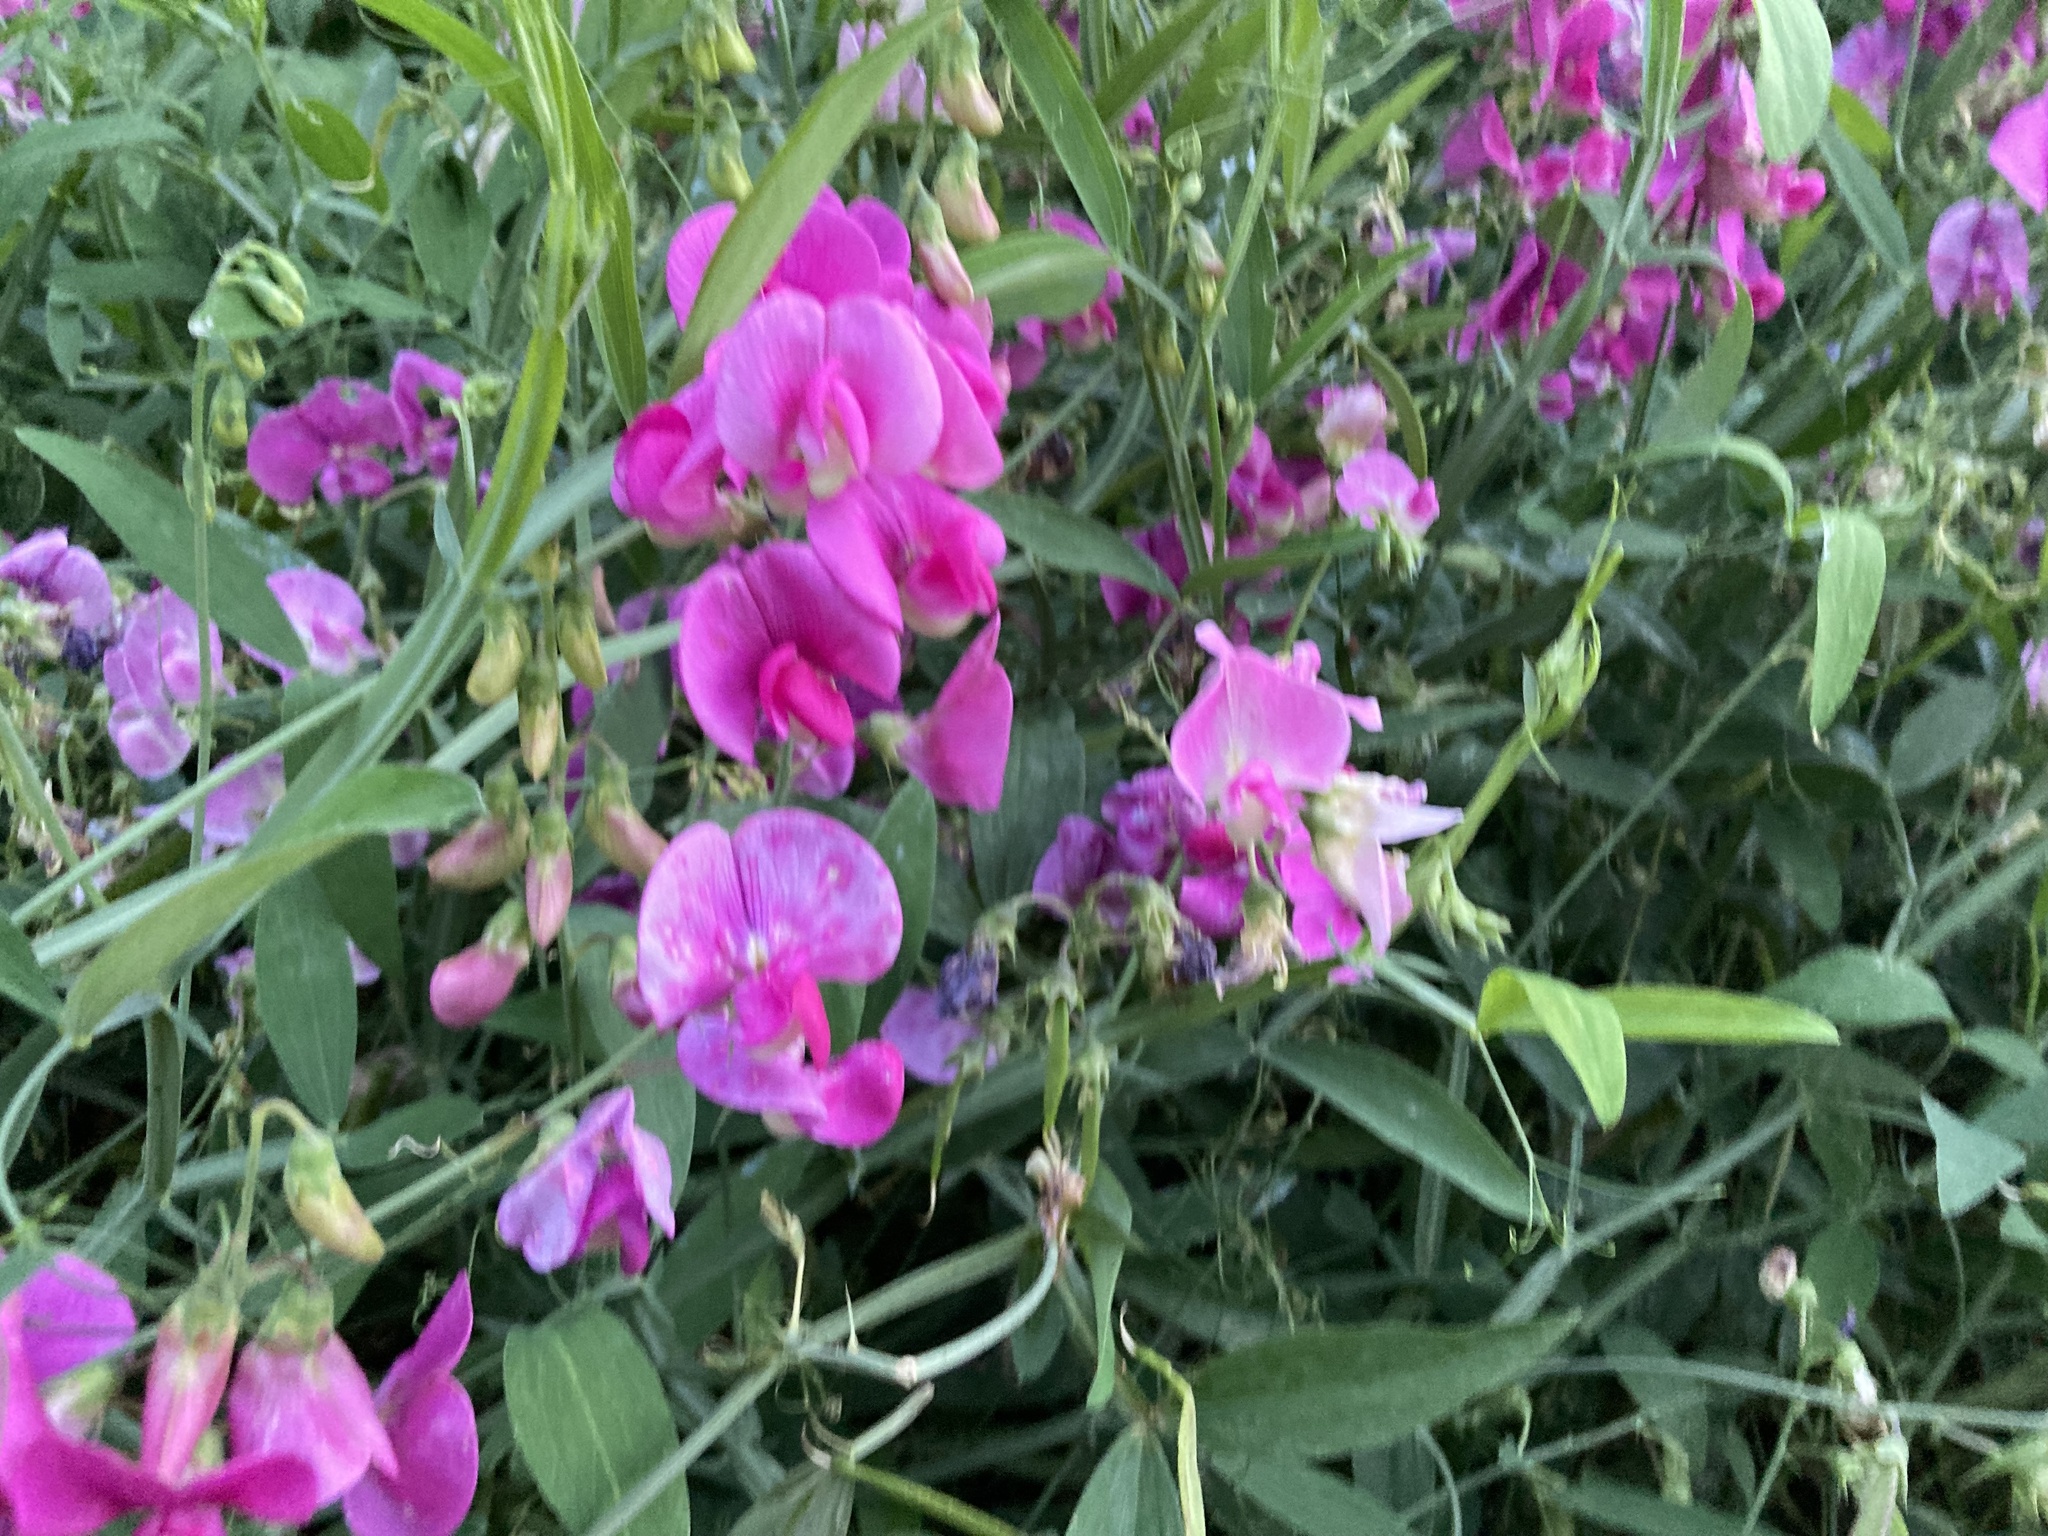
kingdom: Plantae
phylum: Tracheophyta
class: Magnoliopsida
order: Fabales
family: Fabaceae
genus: Lathyrus
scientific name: Lathyrus latifolius
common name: Perennial pea
